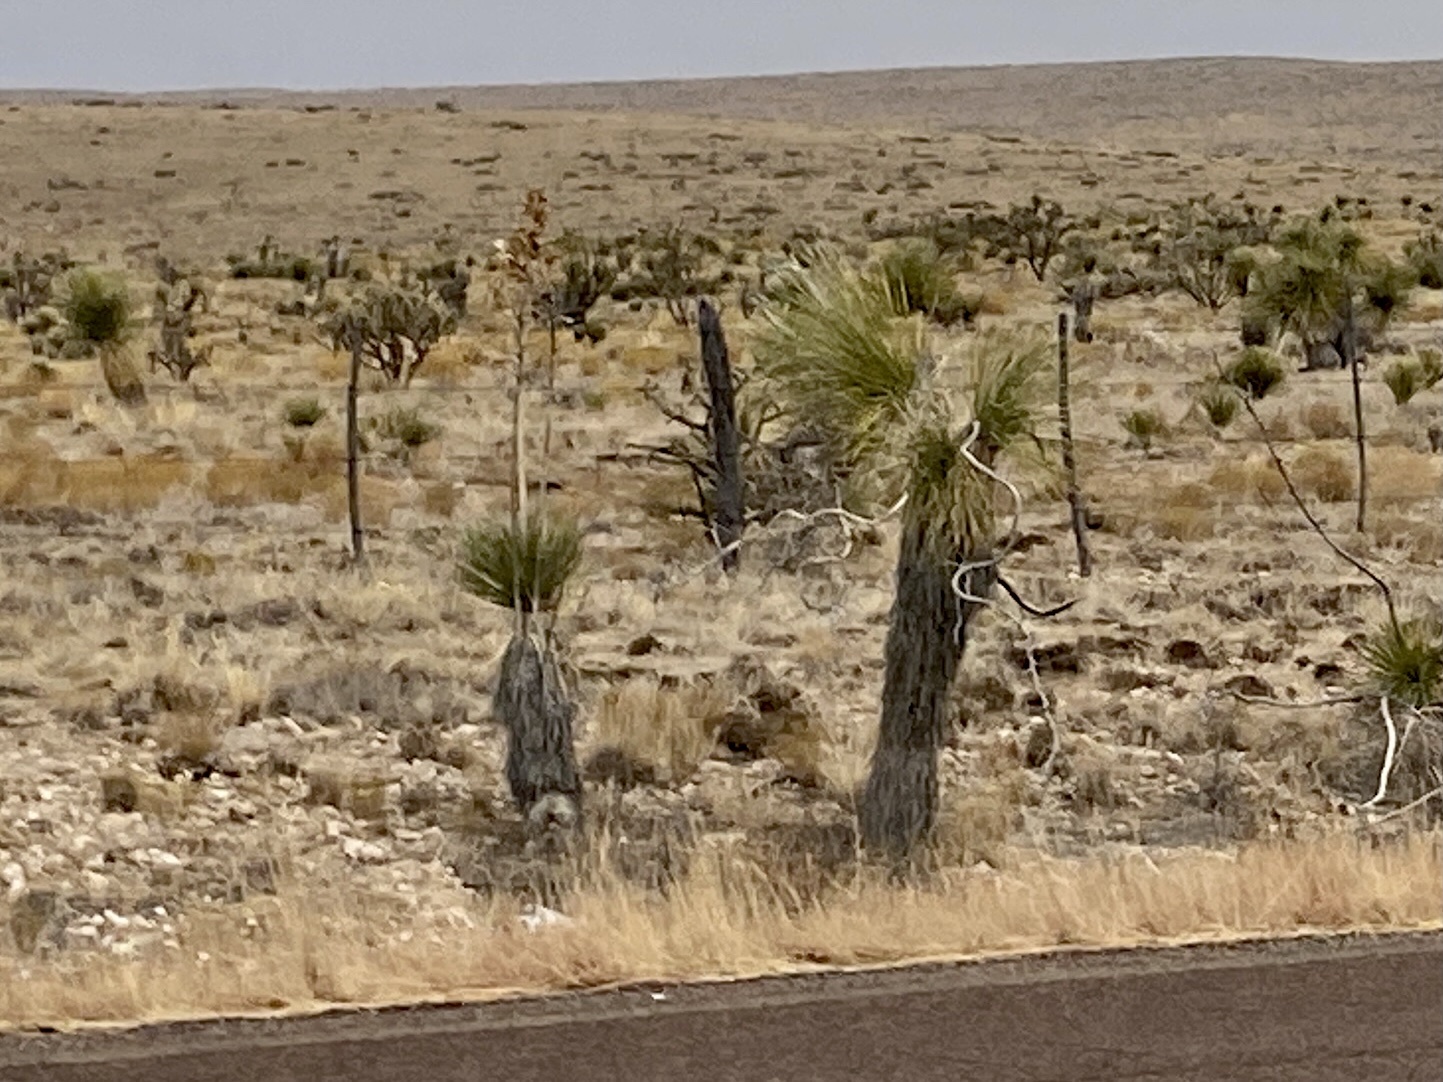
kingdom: Plantae
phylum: Tracheophyta
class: Liliopsida
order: Asparagales
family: Asparagaceae
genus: Yucca
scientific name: Yucca elata
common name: Palmella
